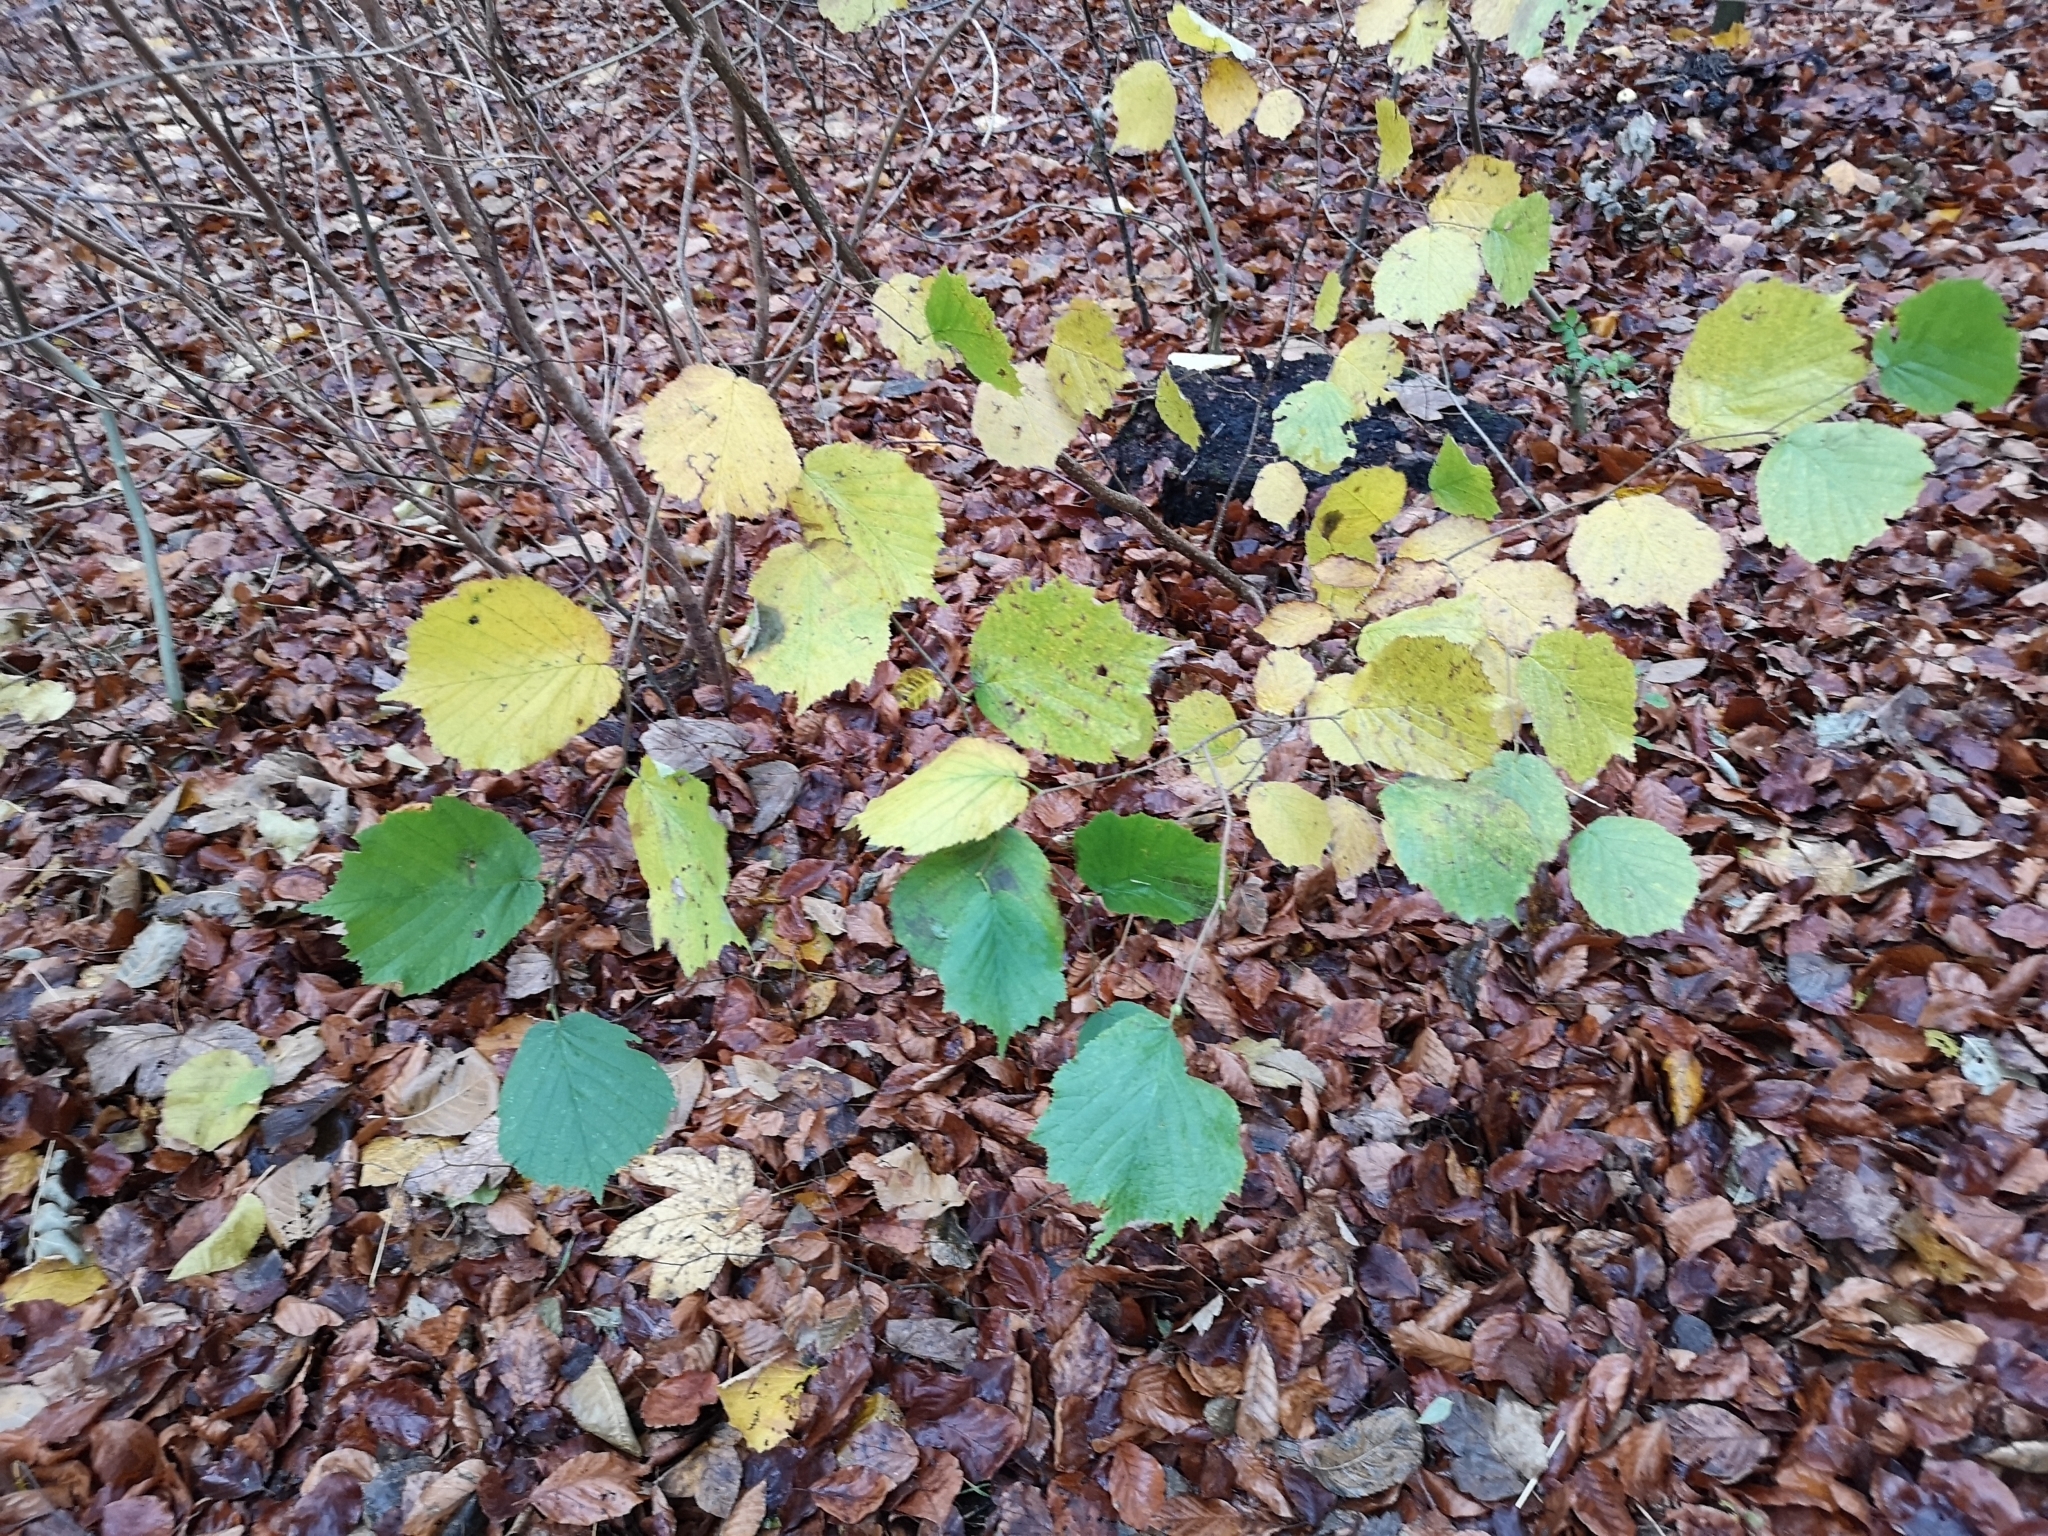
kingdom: Plantae
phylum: Tracheophyta
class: Magnoliopsida
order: Fagales
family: Betulaceae
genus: Corylus
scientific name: Corylus avellana
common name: European hazel
